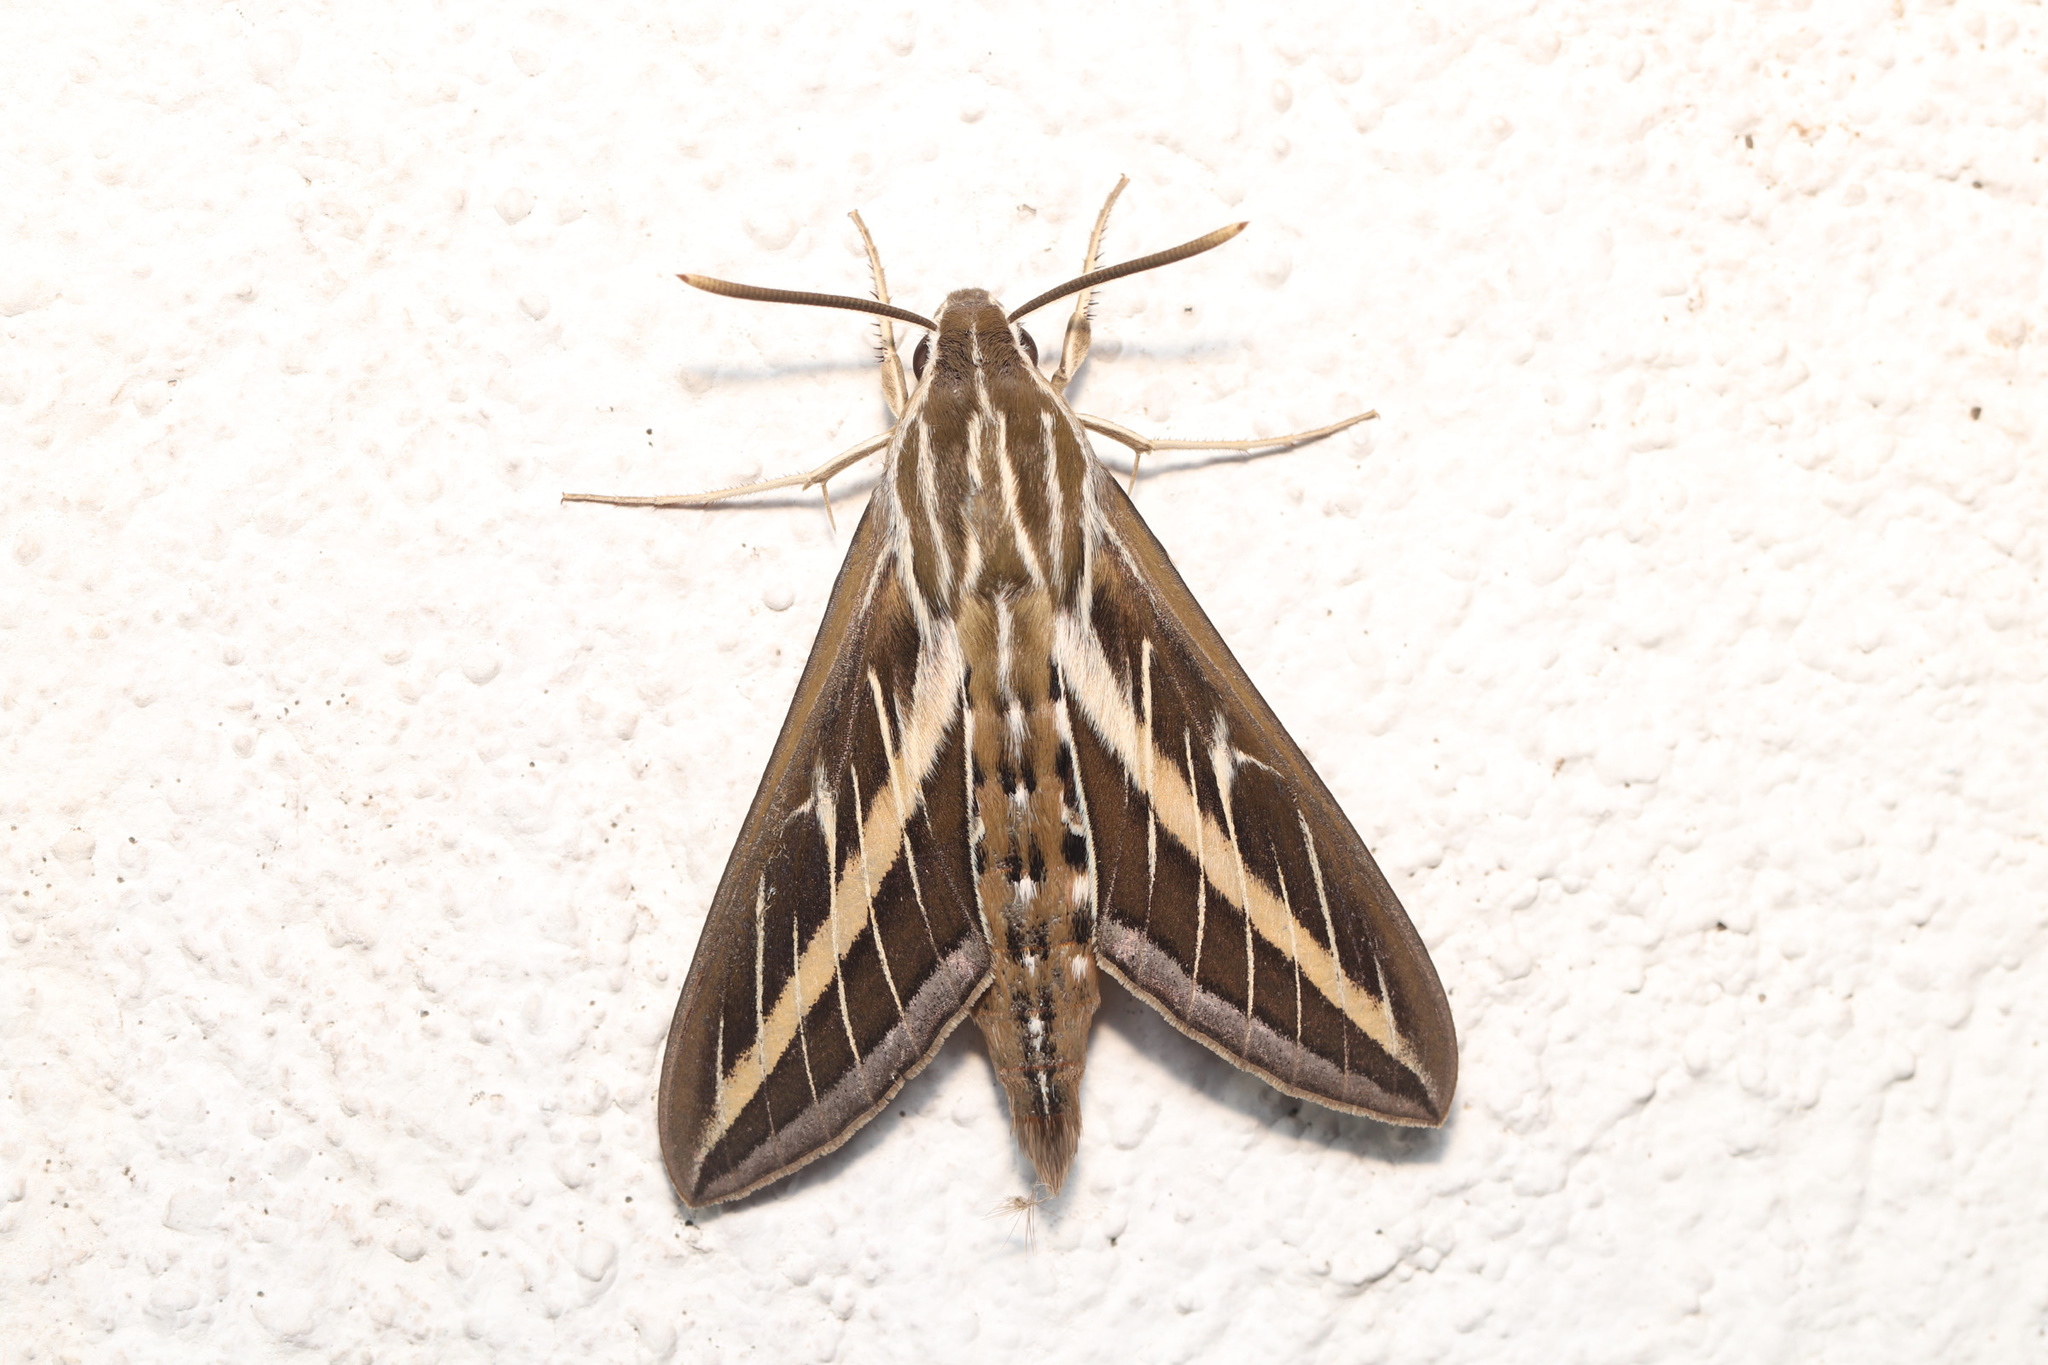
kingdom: Animalia
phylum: Arthropoda
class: Insecta
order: Lepidoptera
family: Sphingidae
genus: Hyles
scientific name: Hyles lineata
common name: White-lined sphinx
